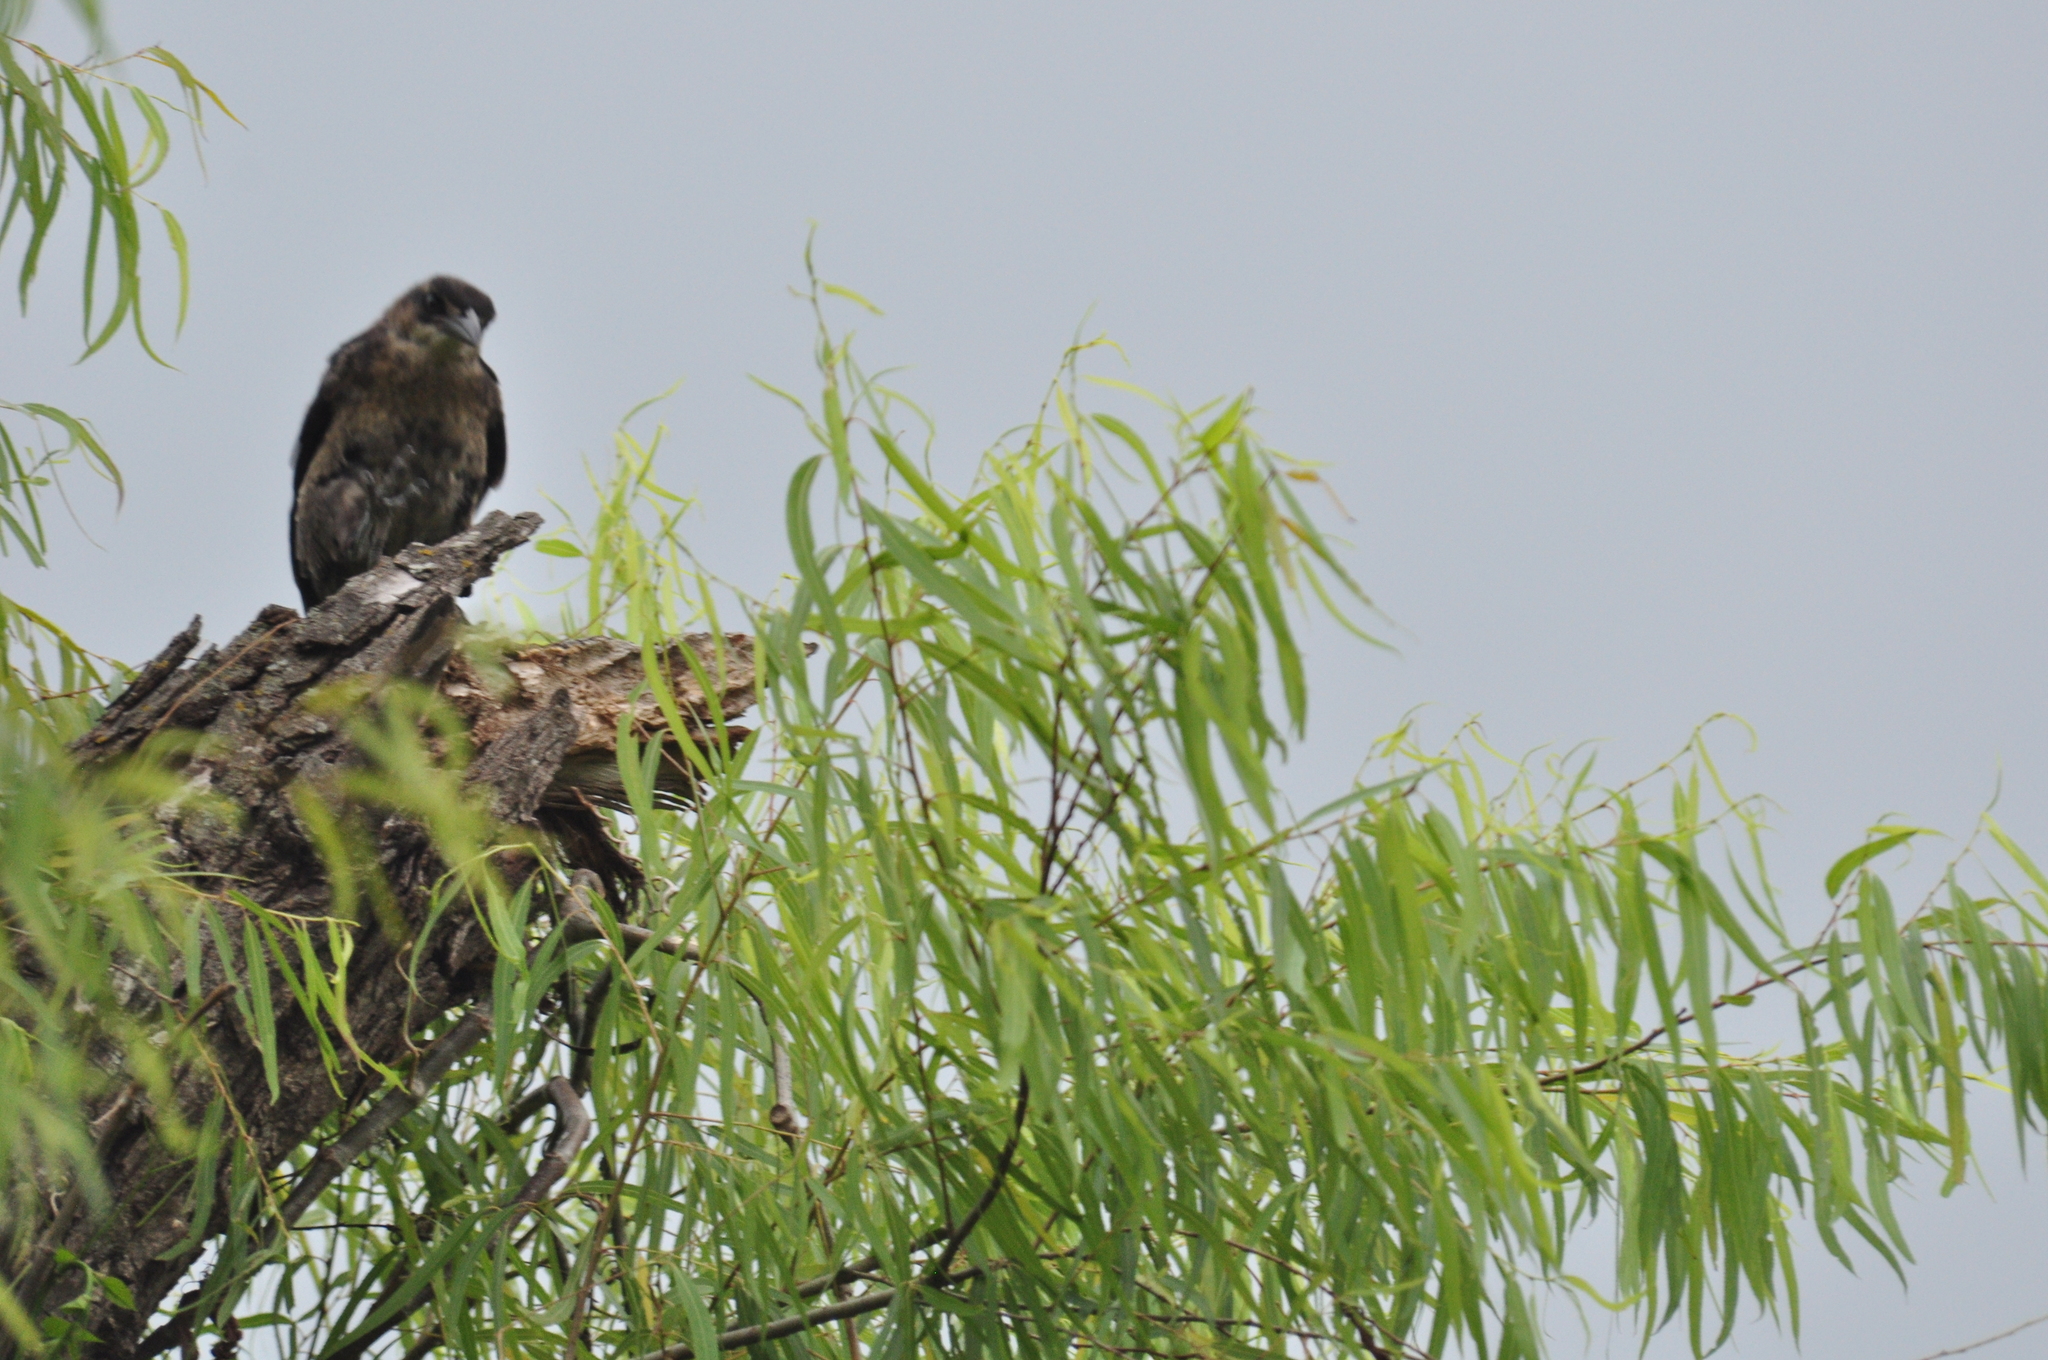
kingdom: Animalia
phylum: Chordata
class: Aves
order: Passeriformes
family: Icteridae
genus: Quiscalus
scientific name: Quiscalus mexicanus
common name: Great-tailed grackle
